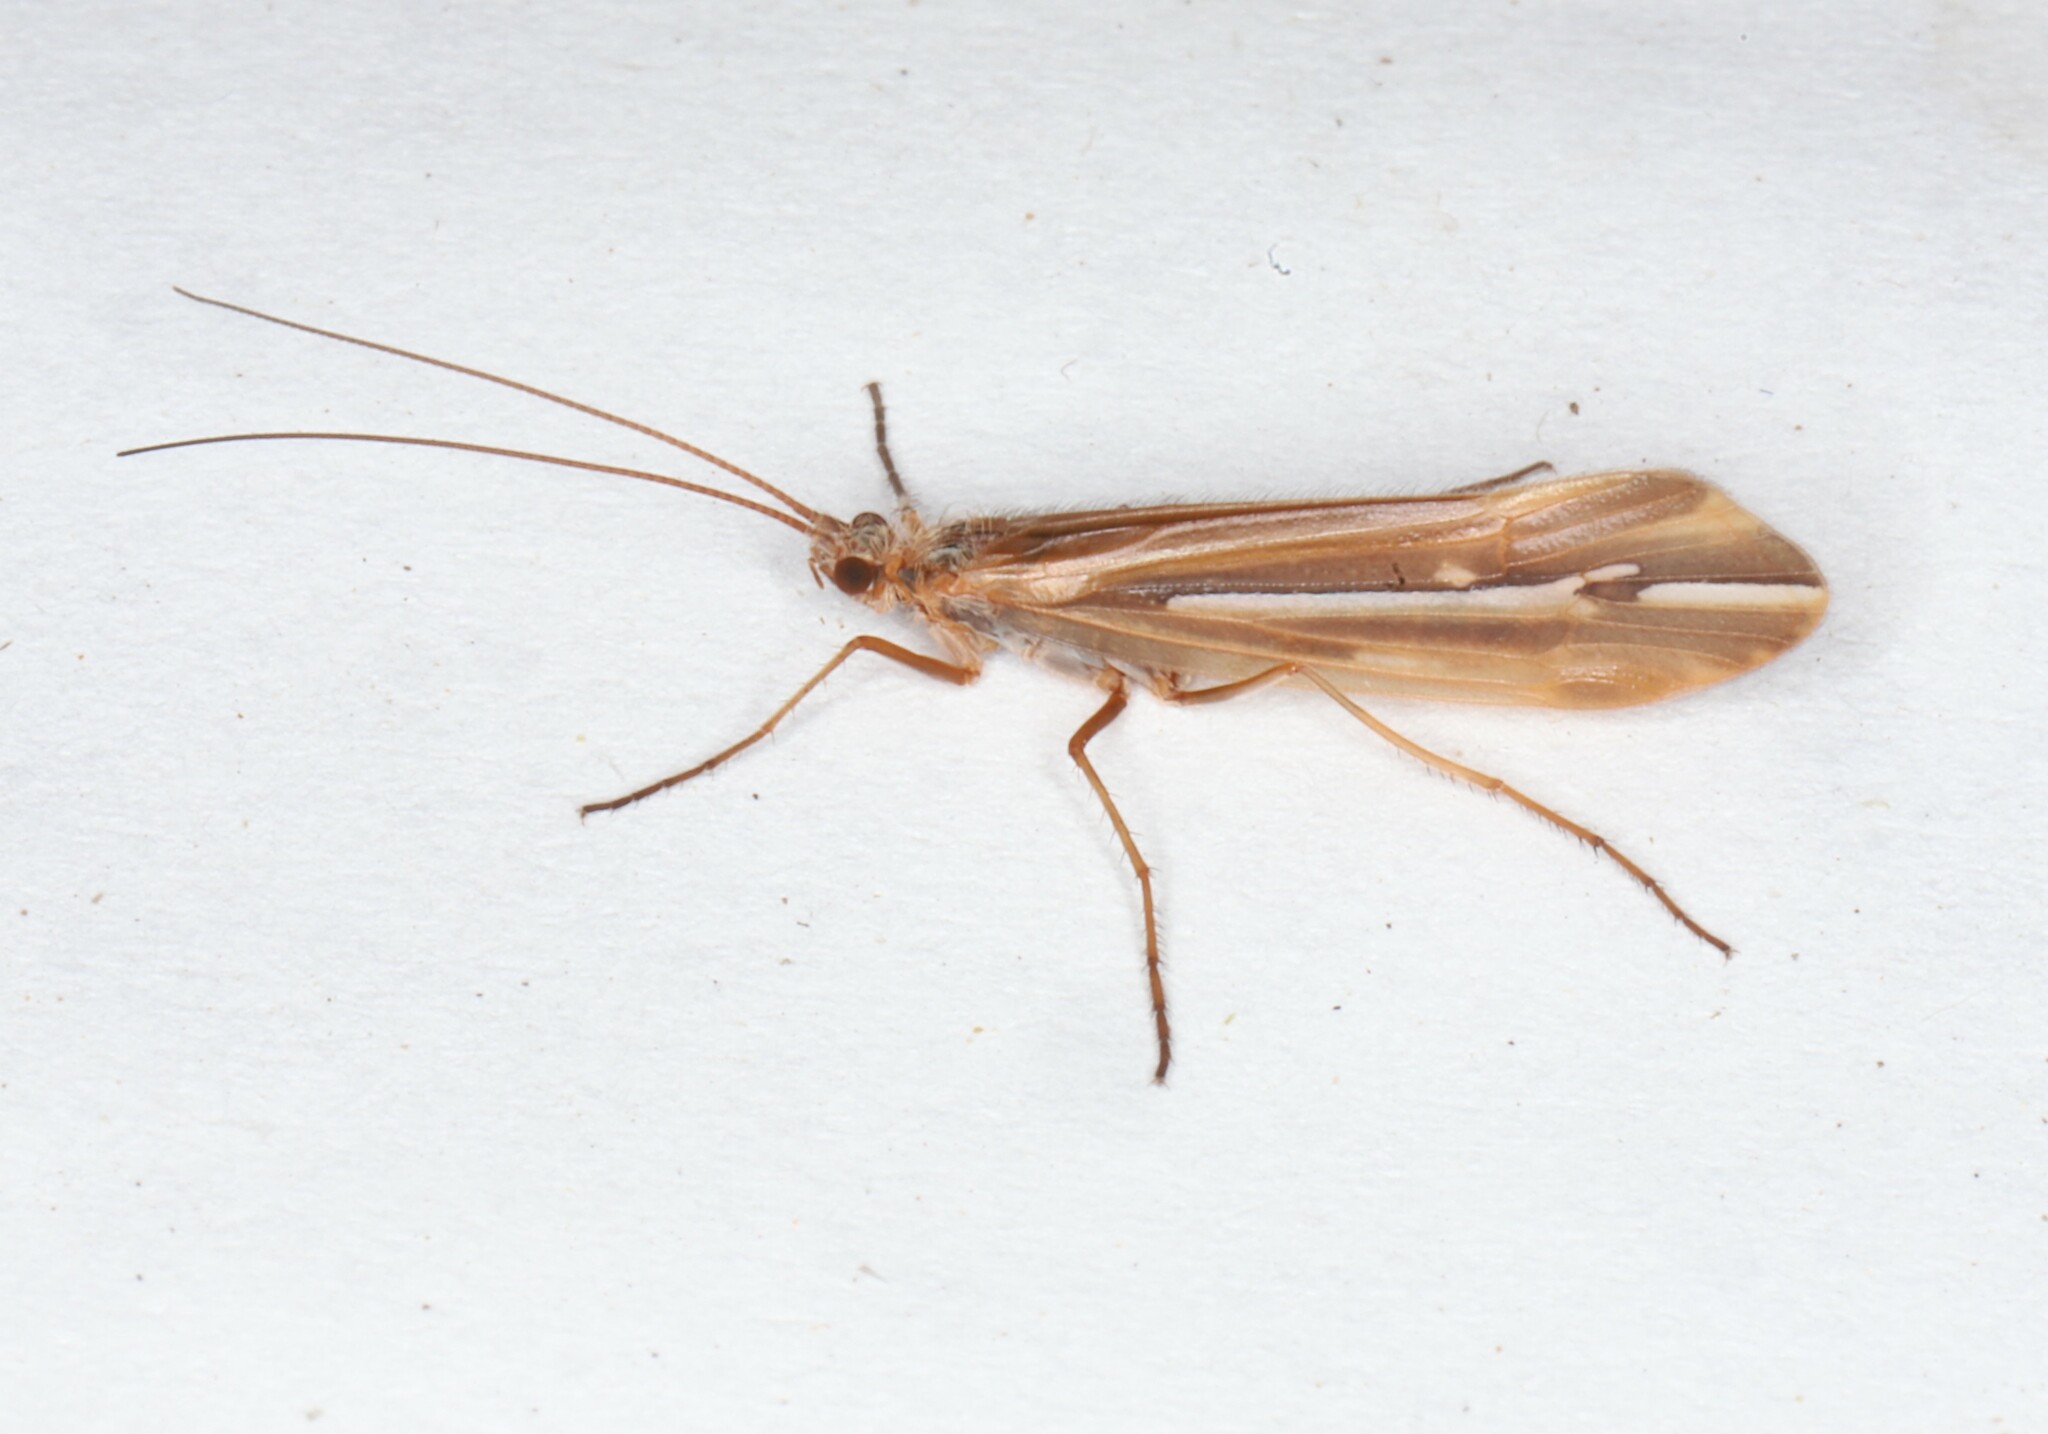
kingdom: Animalia
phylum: Arthropoda
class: Insecta
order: Trichoptera
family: Limnephilidae
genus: Psychoglypha
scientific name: Psychoglypha subborealis
